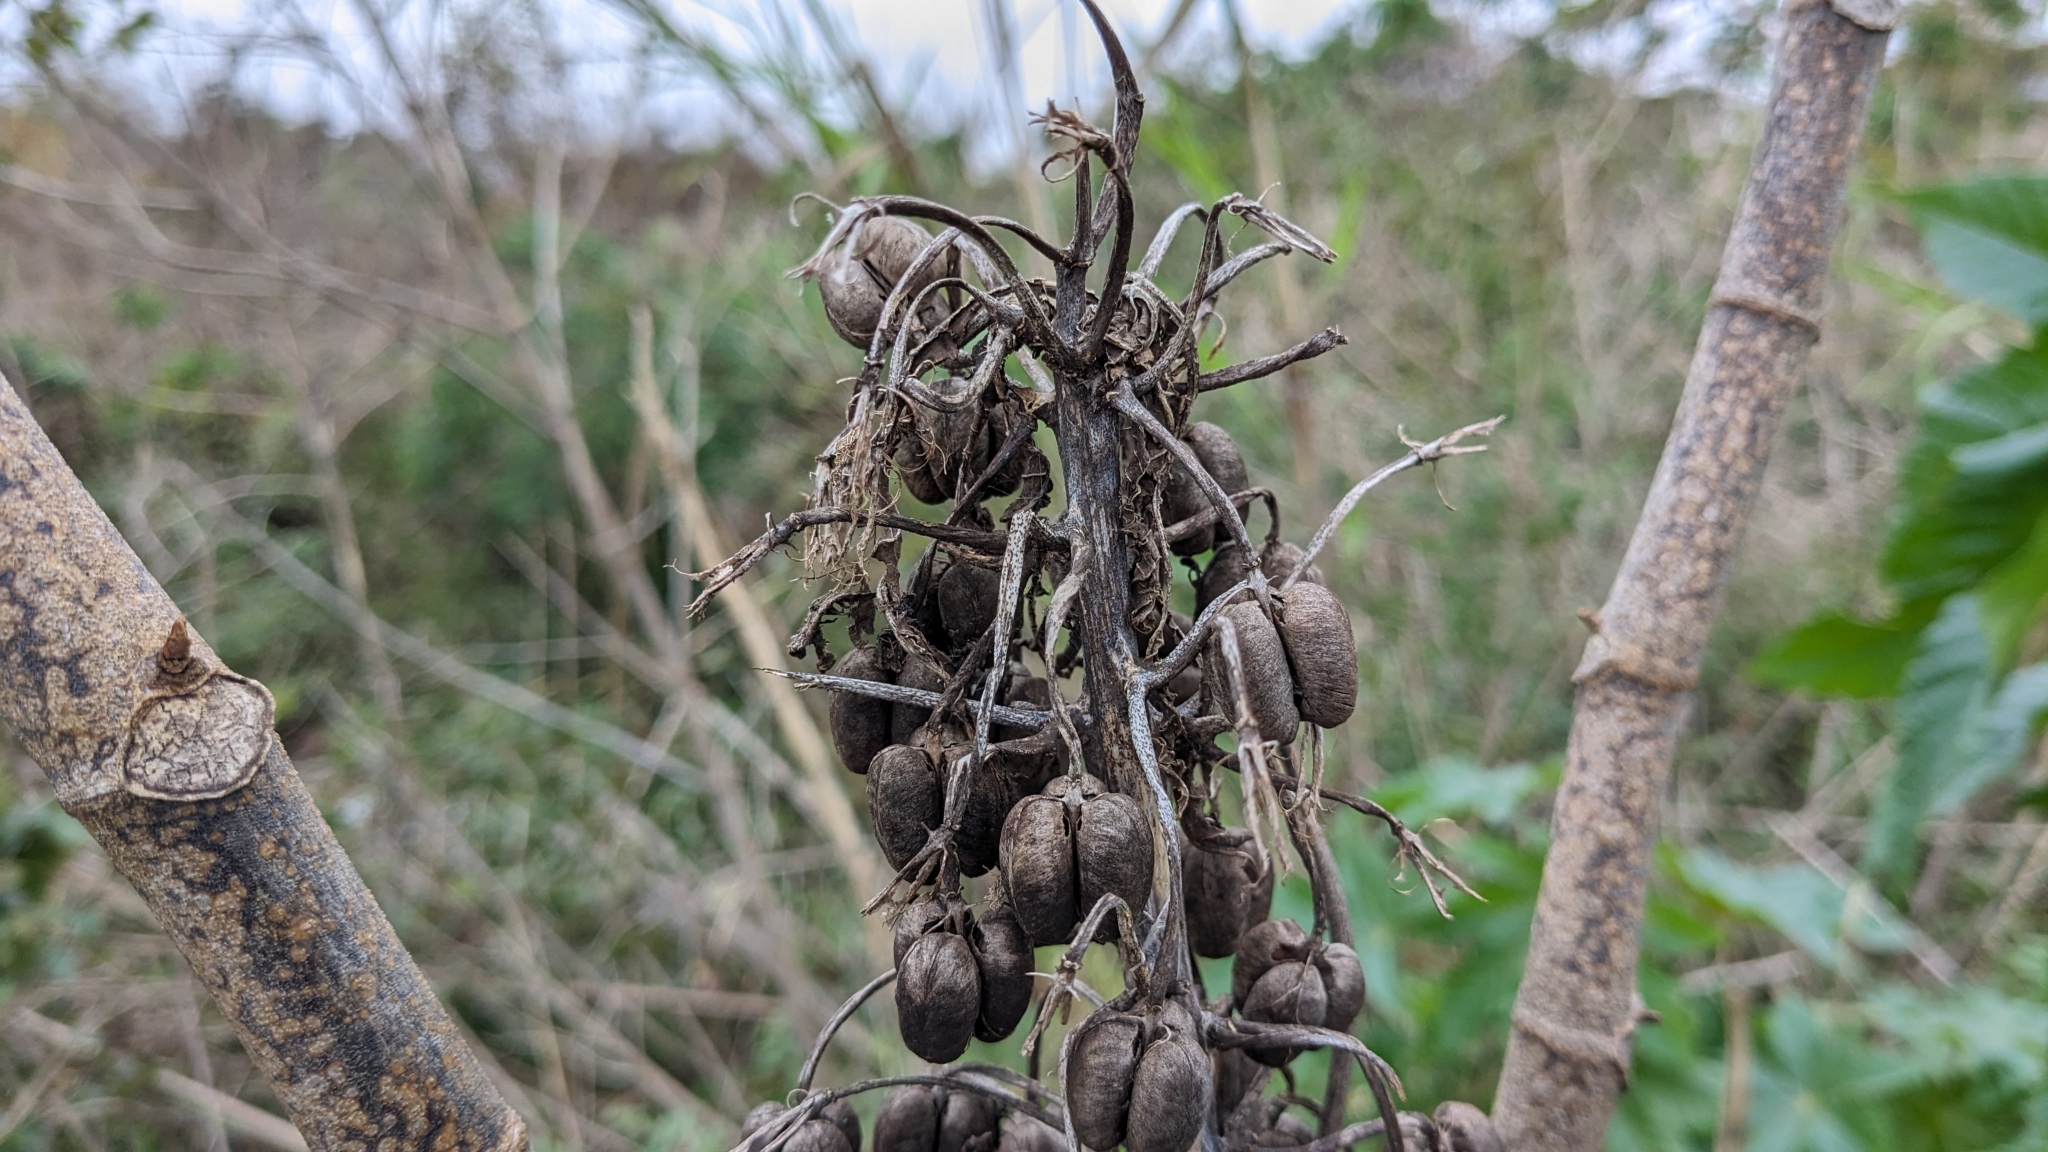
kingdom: Plantae
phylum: Tracheophyta
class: Magnoliopsida
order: Malpighiales
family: Euphorbiaceae
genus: Ricinus
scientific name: Ricinus communis
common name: Castor-oil-plant
